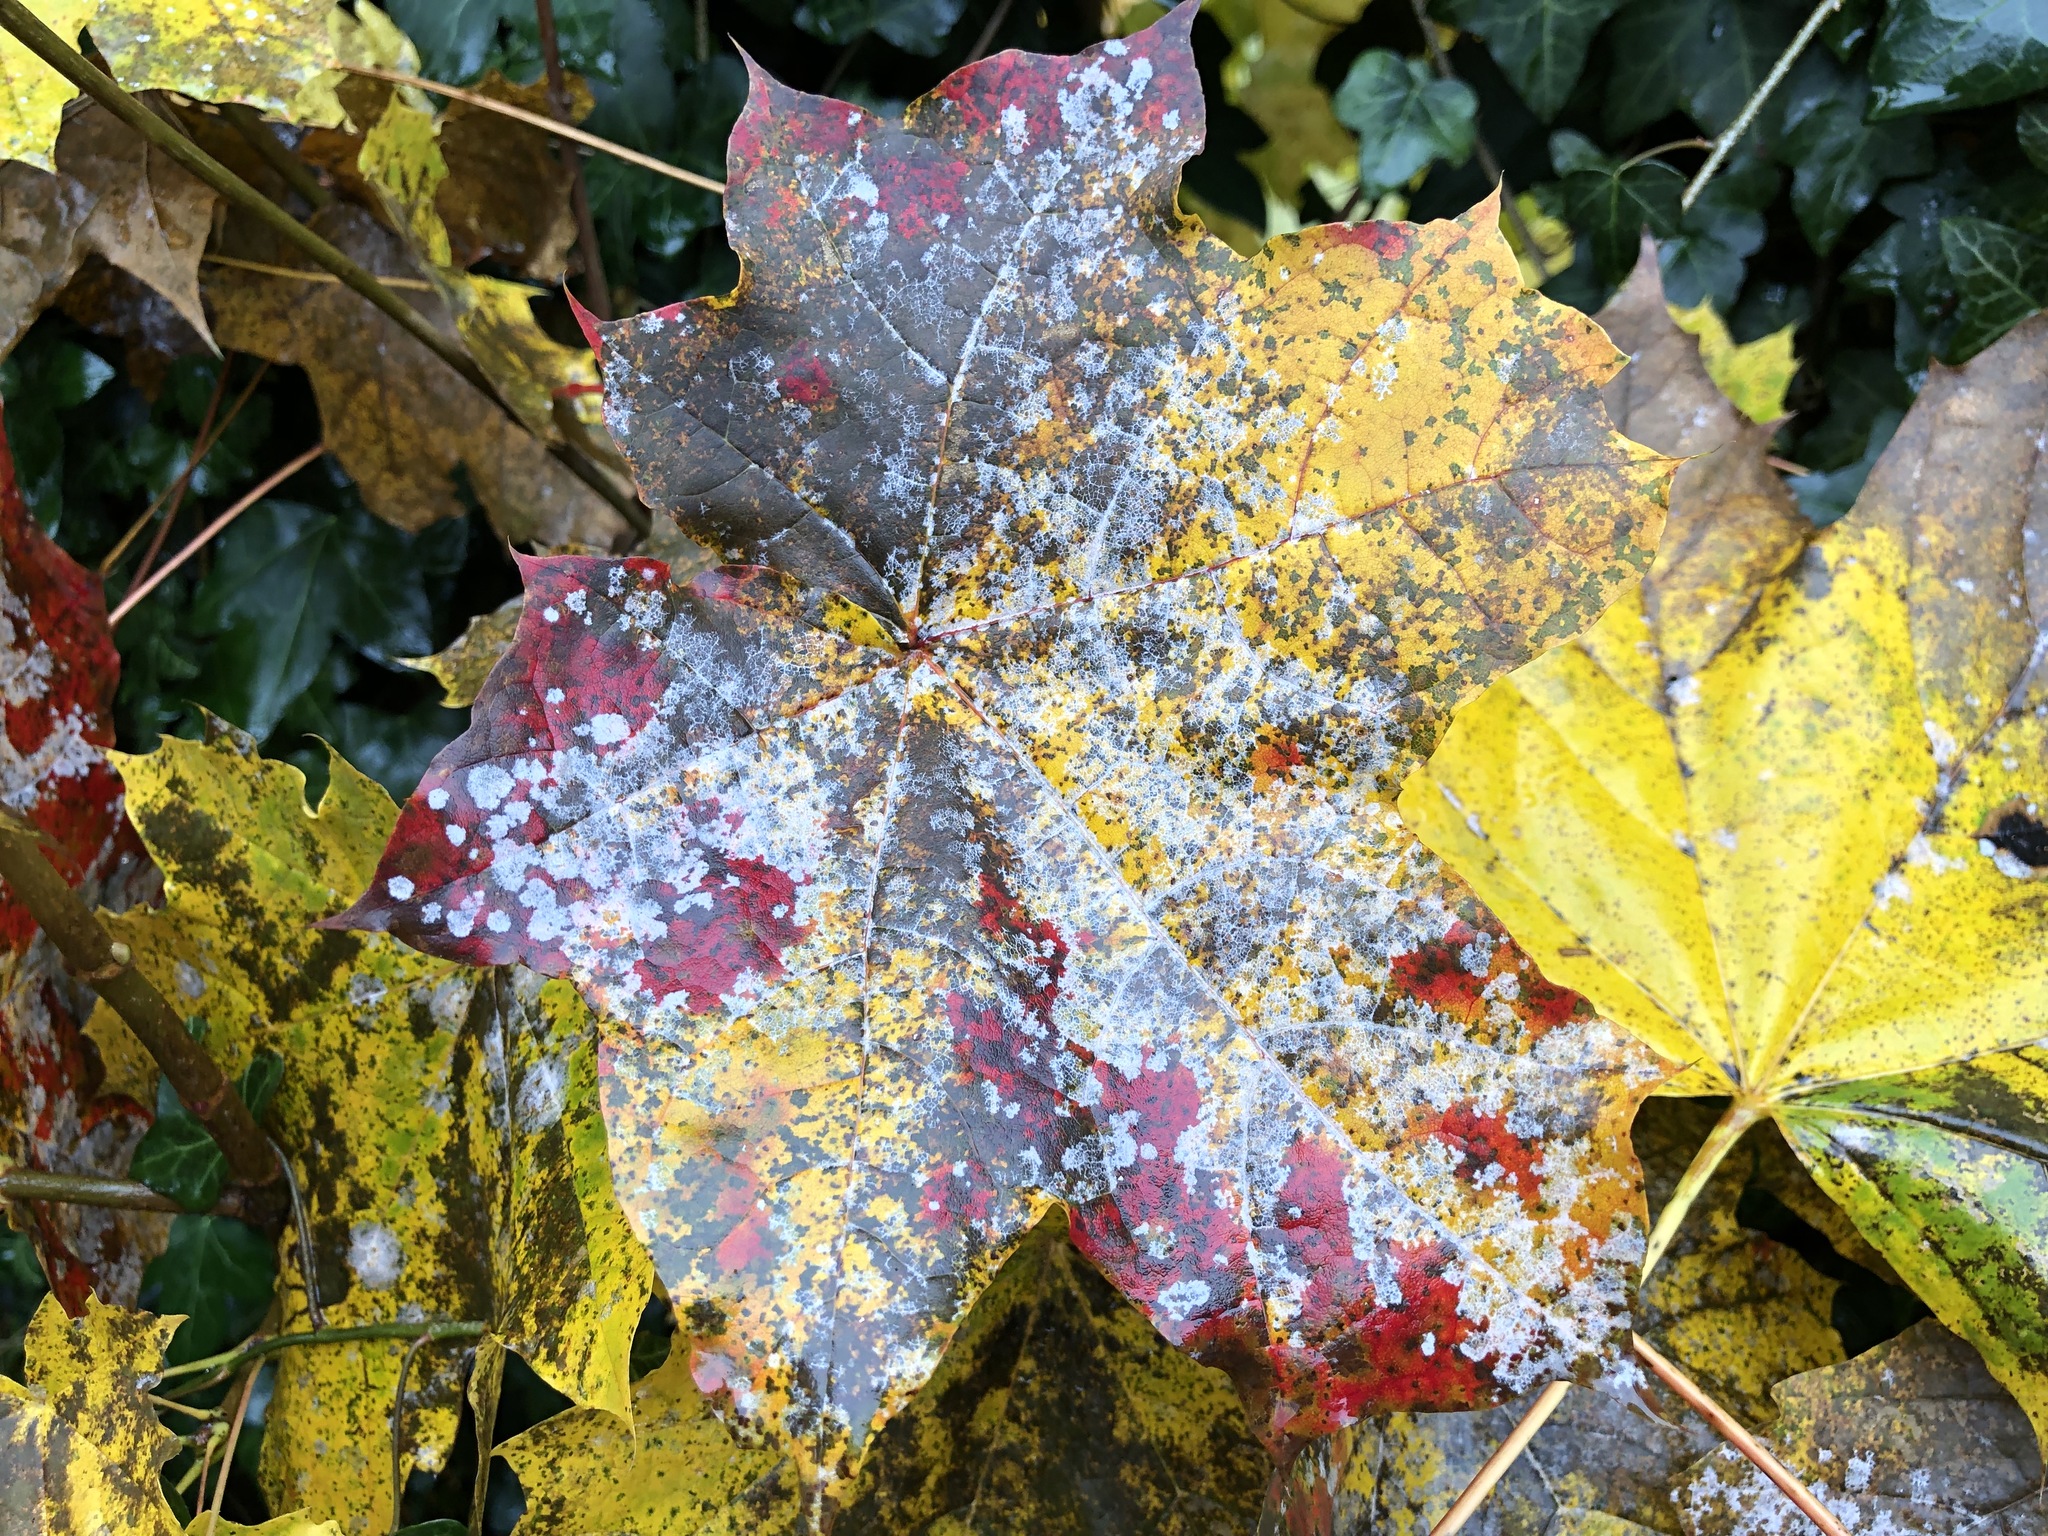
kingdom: Fungi
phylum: Ascomycota
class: Leotiomycetes
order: Helotiales
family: Erysiphaceae
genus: Sawadaea
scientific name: Sawadaea tulasnei
